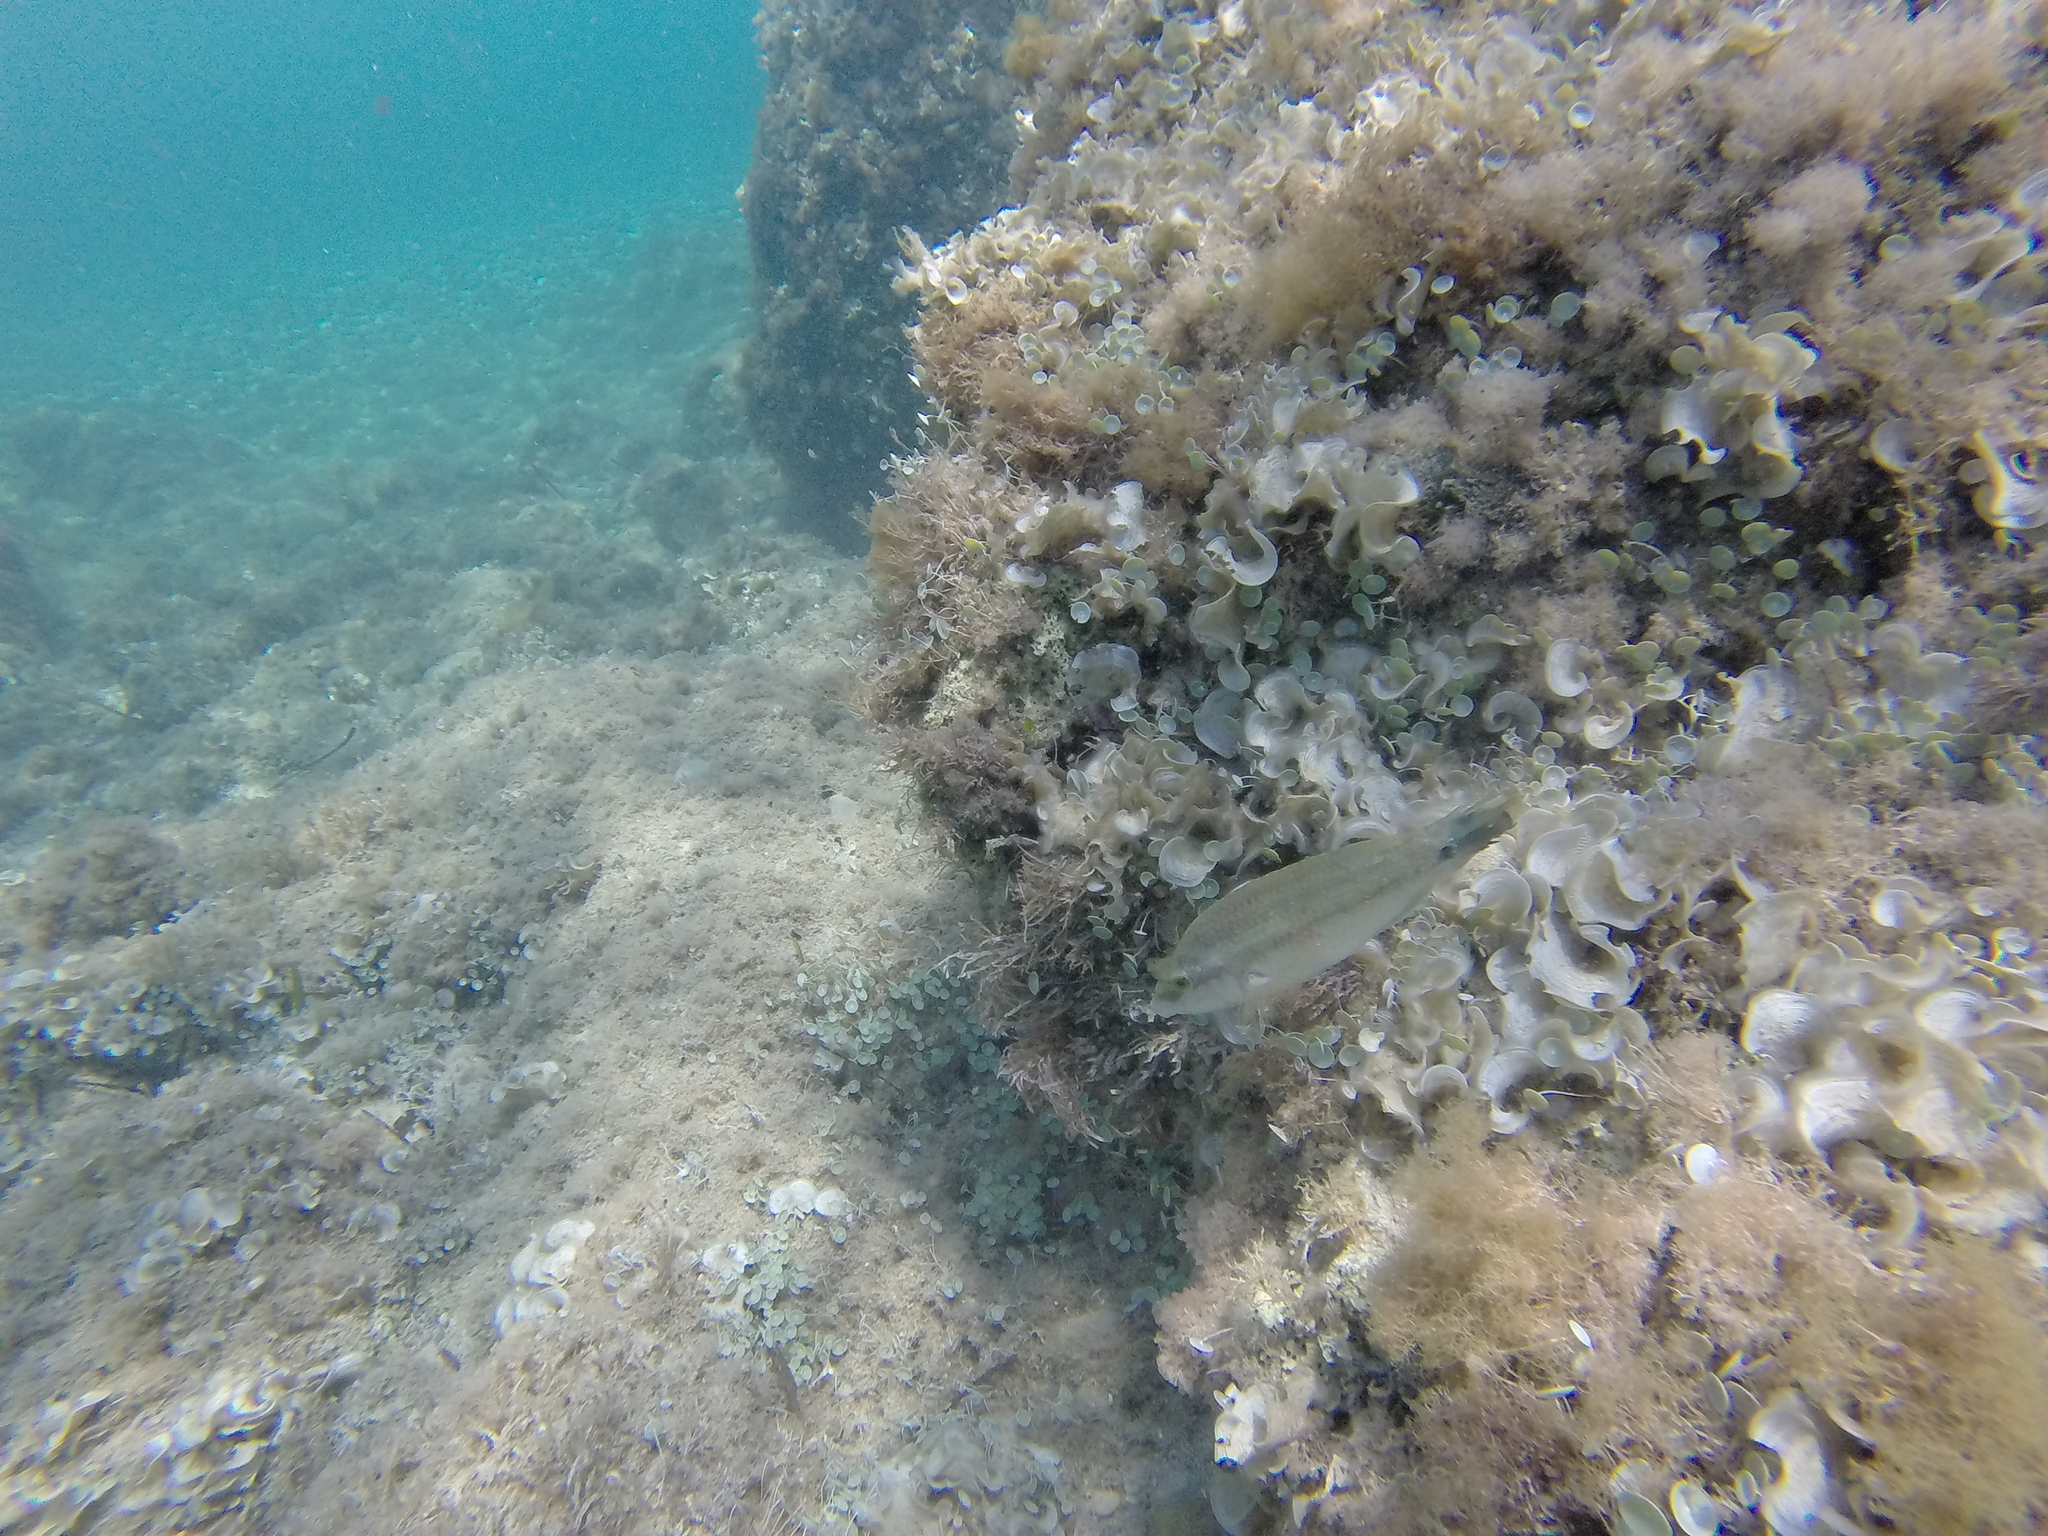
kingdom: Animalia
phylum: Chordata
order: Perciformes
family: Labridae
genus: Symphodus
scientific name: Symphodus tinca
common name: Peacock wrasse
